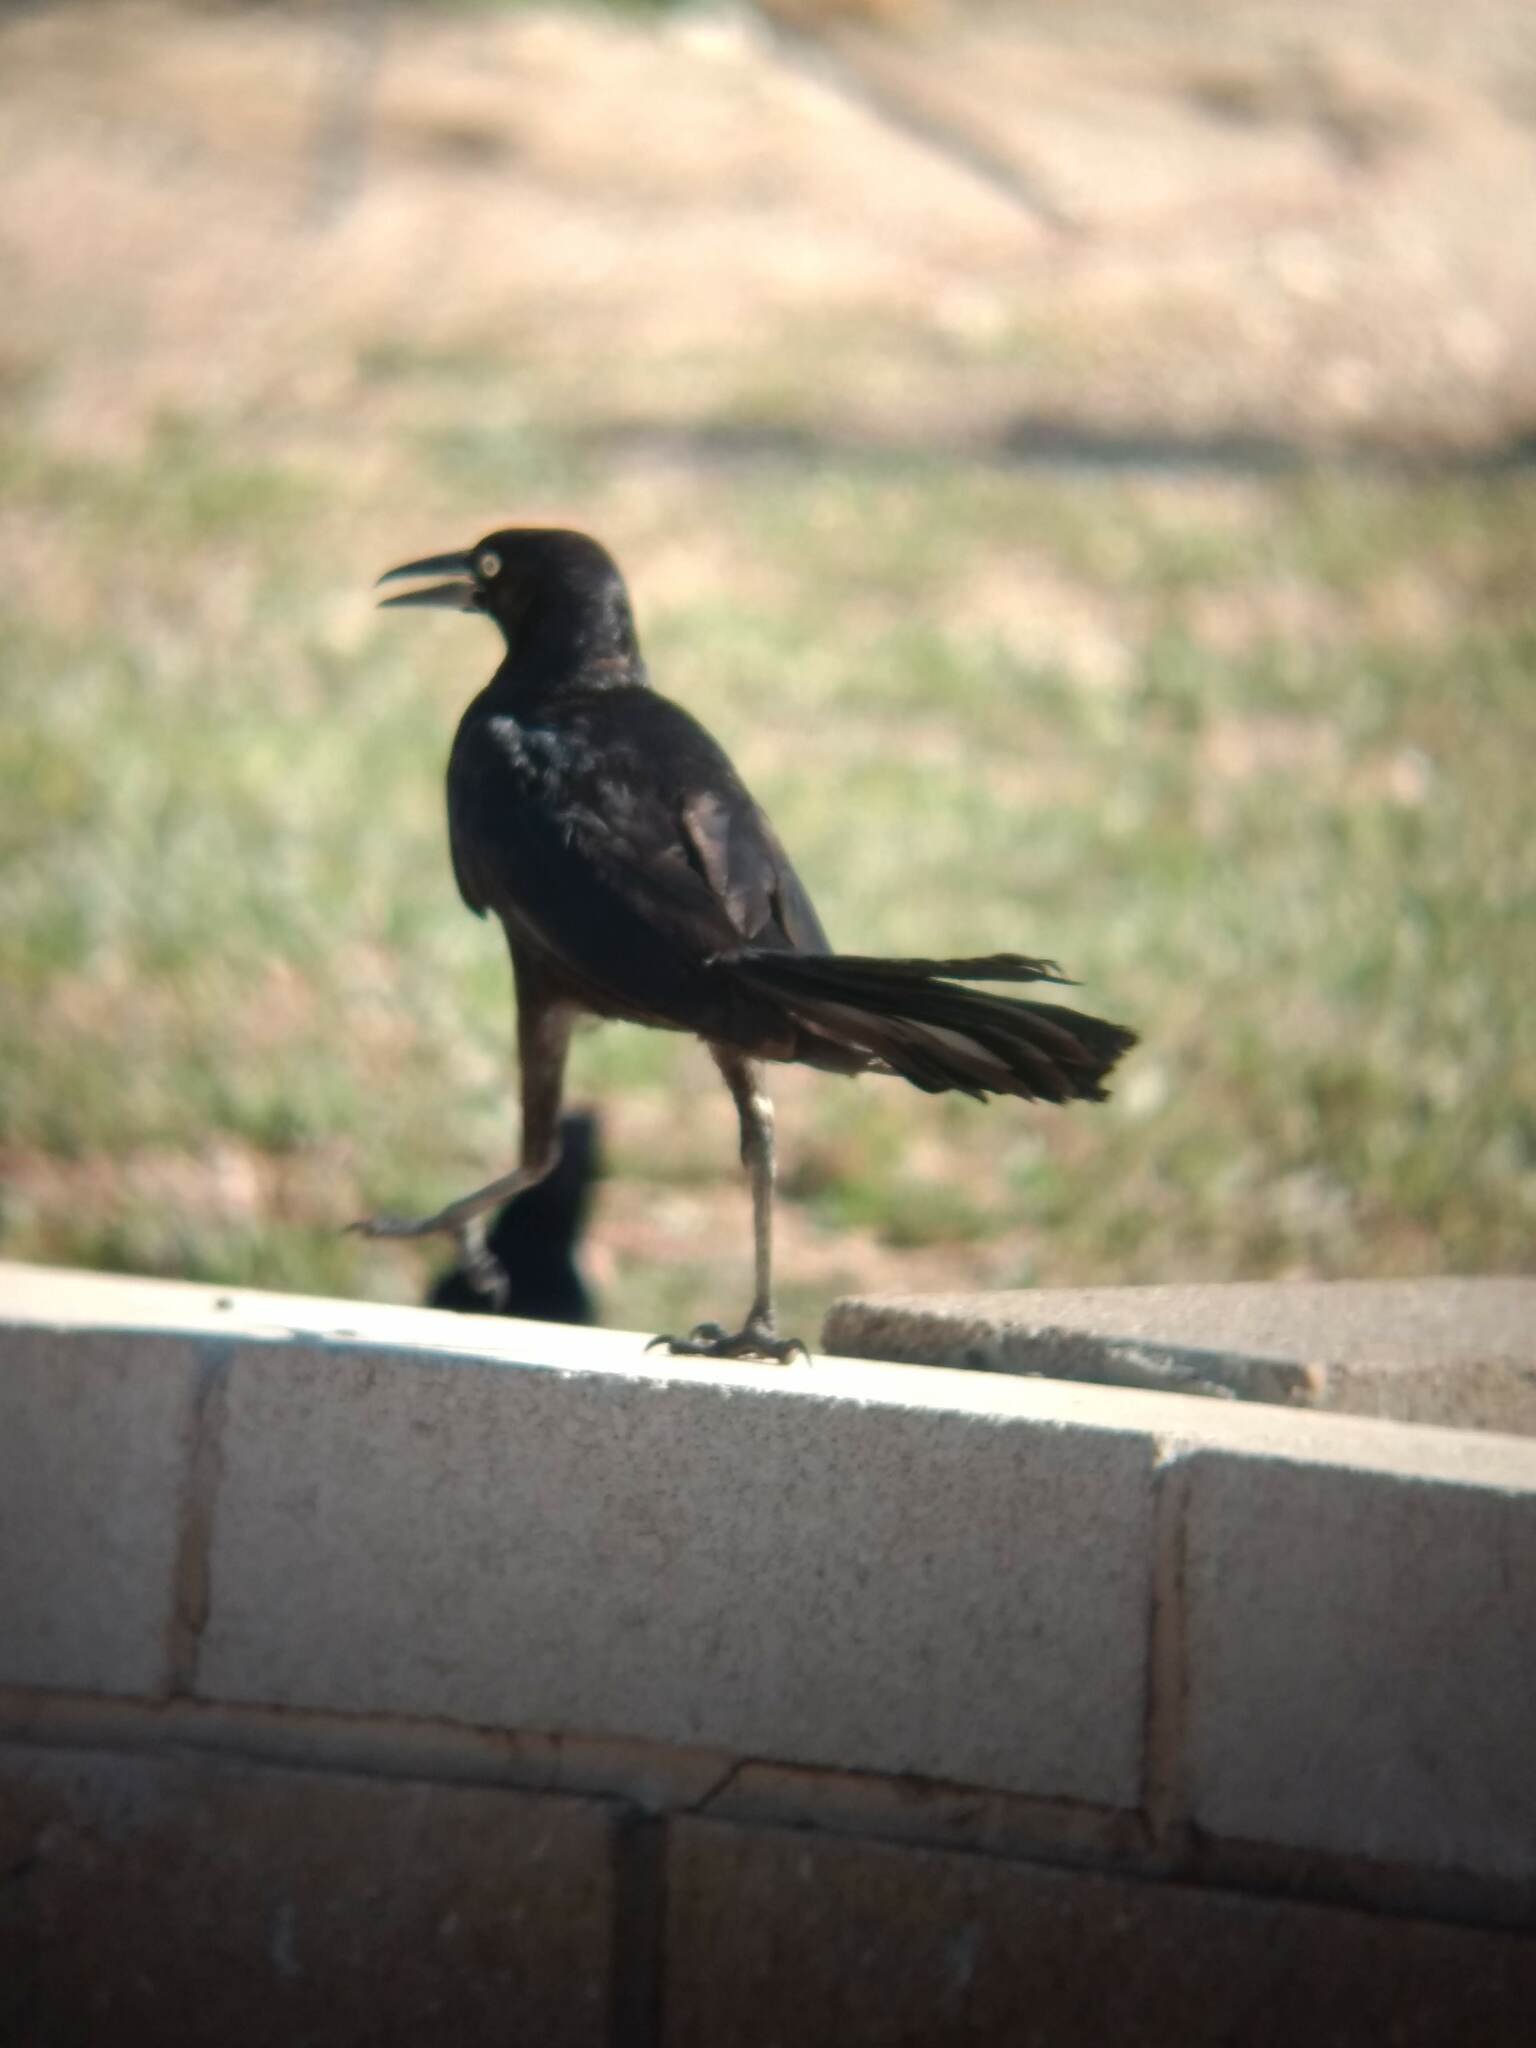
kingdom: Animalia
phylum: Chordata
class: Aves
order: Passeriformes
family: Icteridae
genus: Quiscalus
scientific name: Quiscalus mexicanus
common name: Great-tailed grackle
